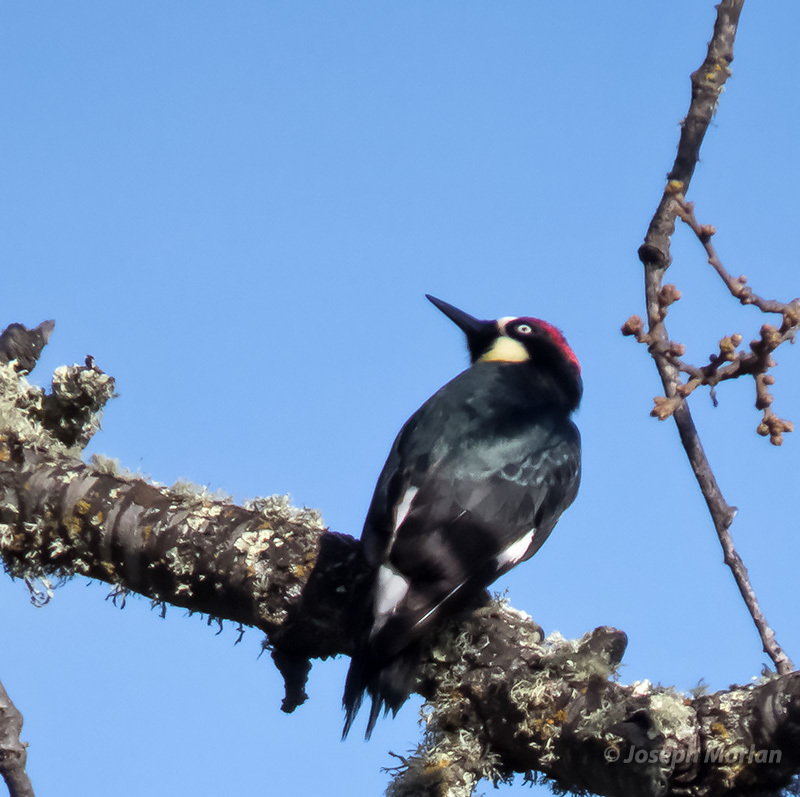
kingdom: Animalia
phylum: Chordata
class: Aves
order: Piciformes
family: Picidae
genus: Melanerpes
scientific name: Melanerpes formicivorus
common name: Acorn woodpecker
